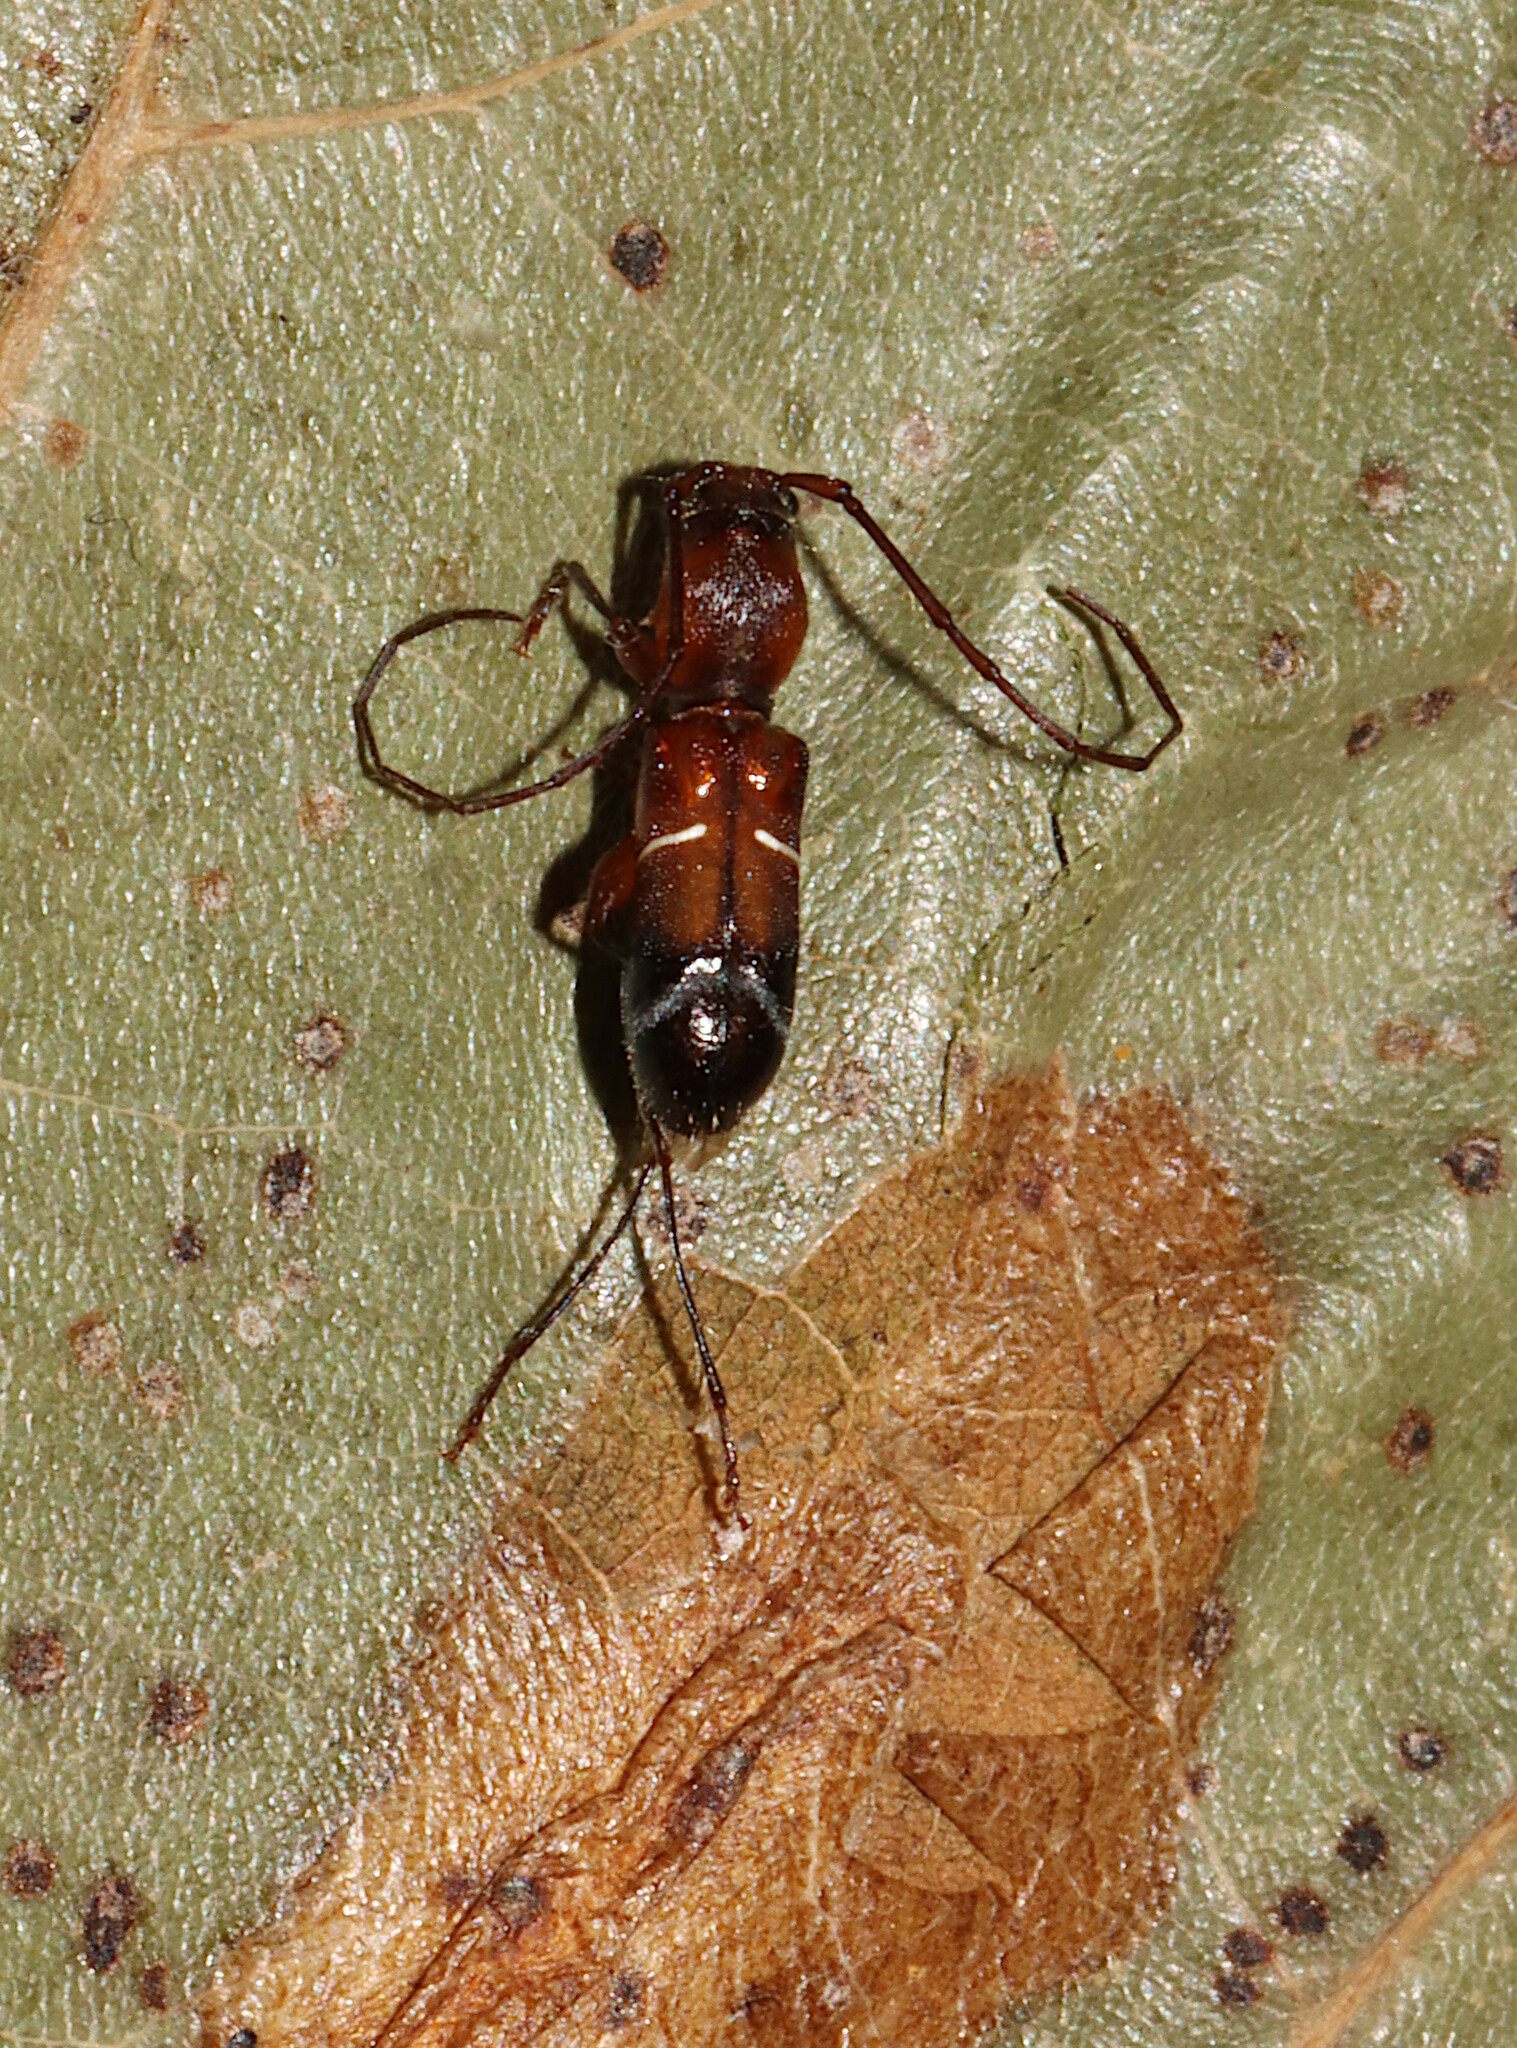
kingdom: Animalia
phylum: Arthropoda
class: Insecta
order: Coleoptera
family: Cerambycidae
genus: Euderces
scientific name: Euderces pini
